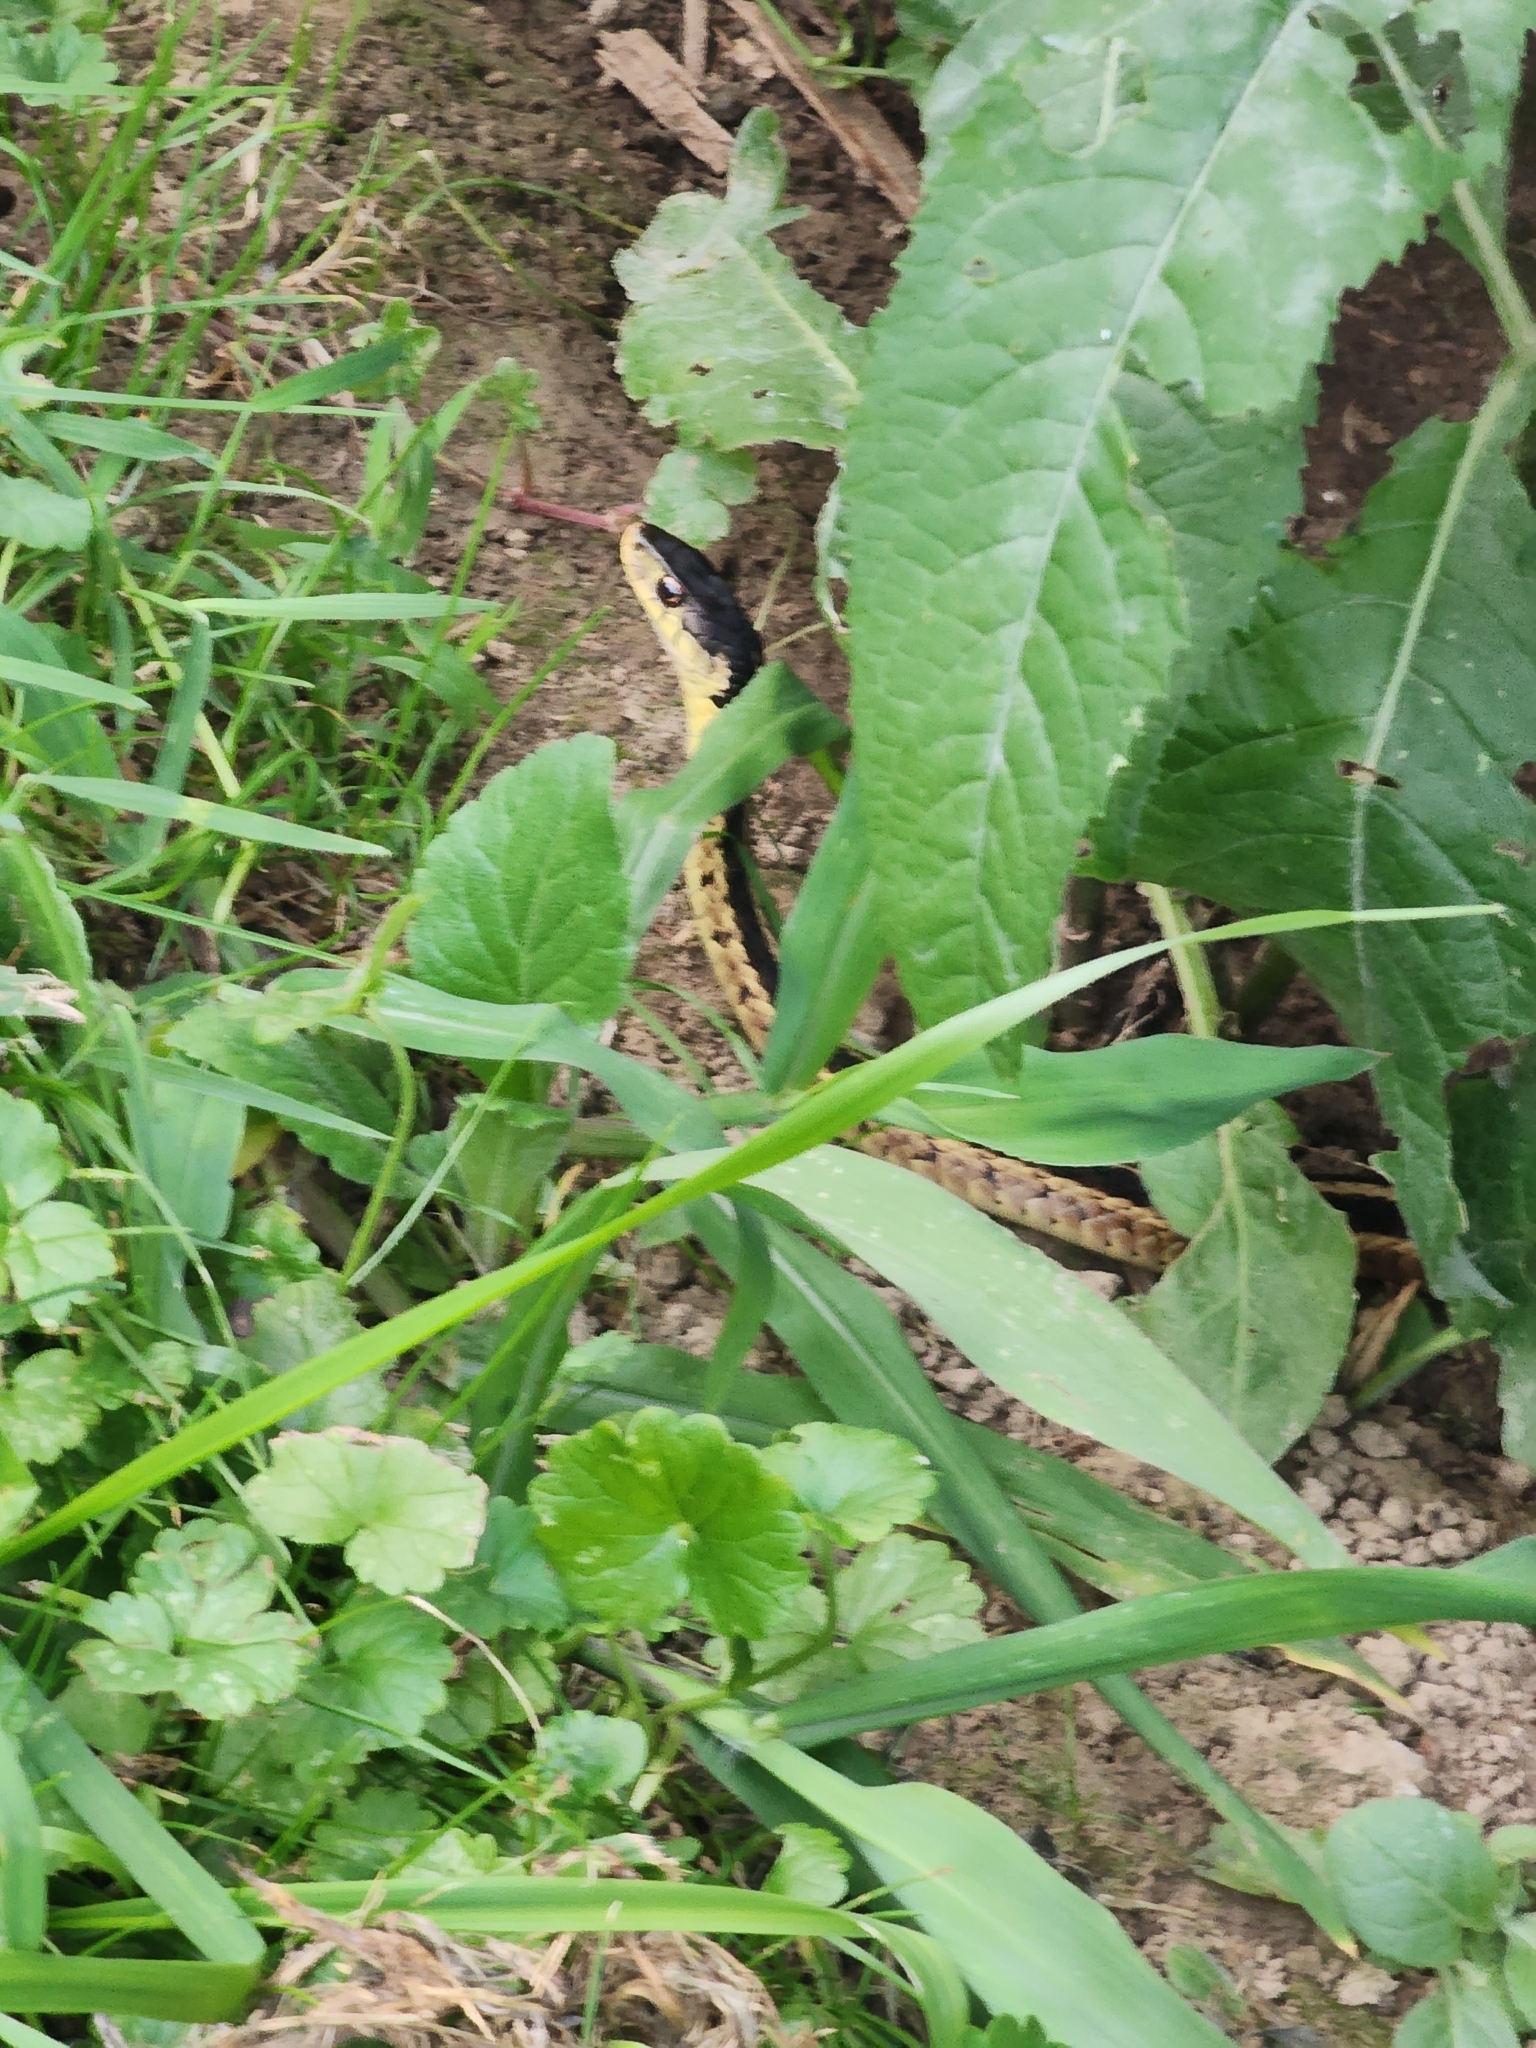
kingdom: Animalia
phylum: Chordata
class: Squamata
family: Colubridae
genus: Thamnophis
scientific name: Thamnophis sirtalis
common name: Common garter snake
